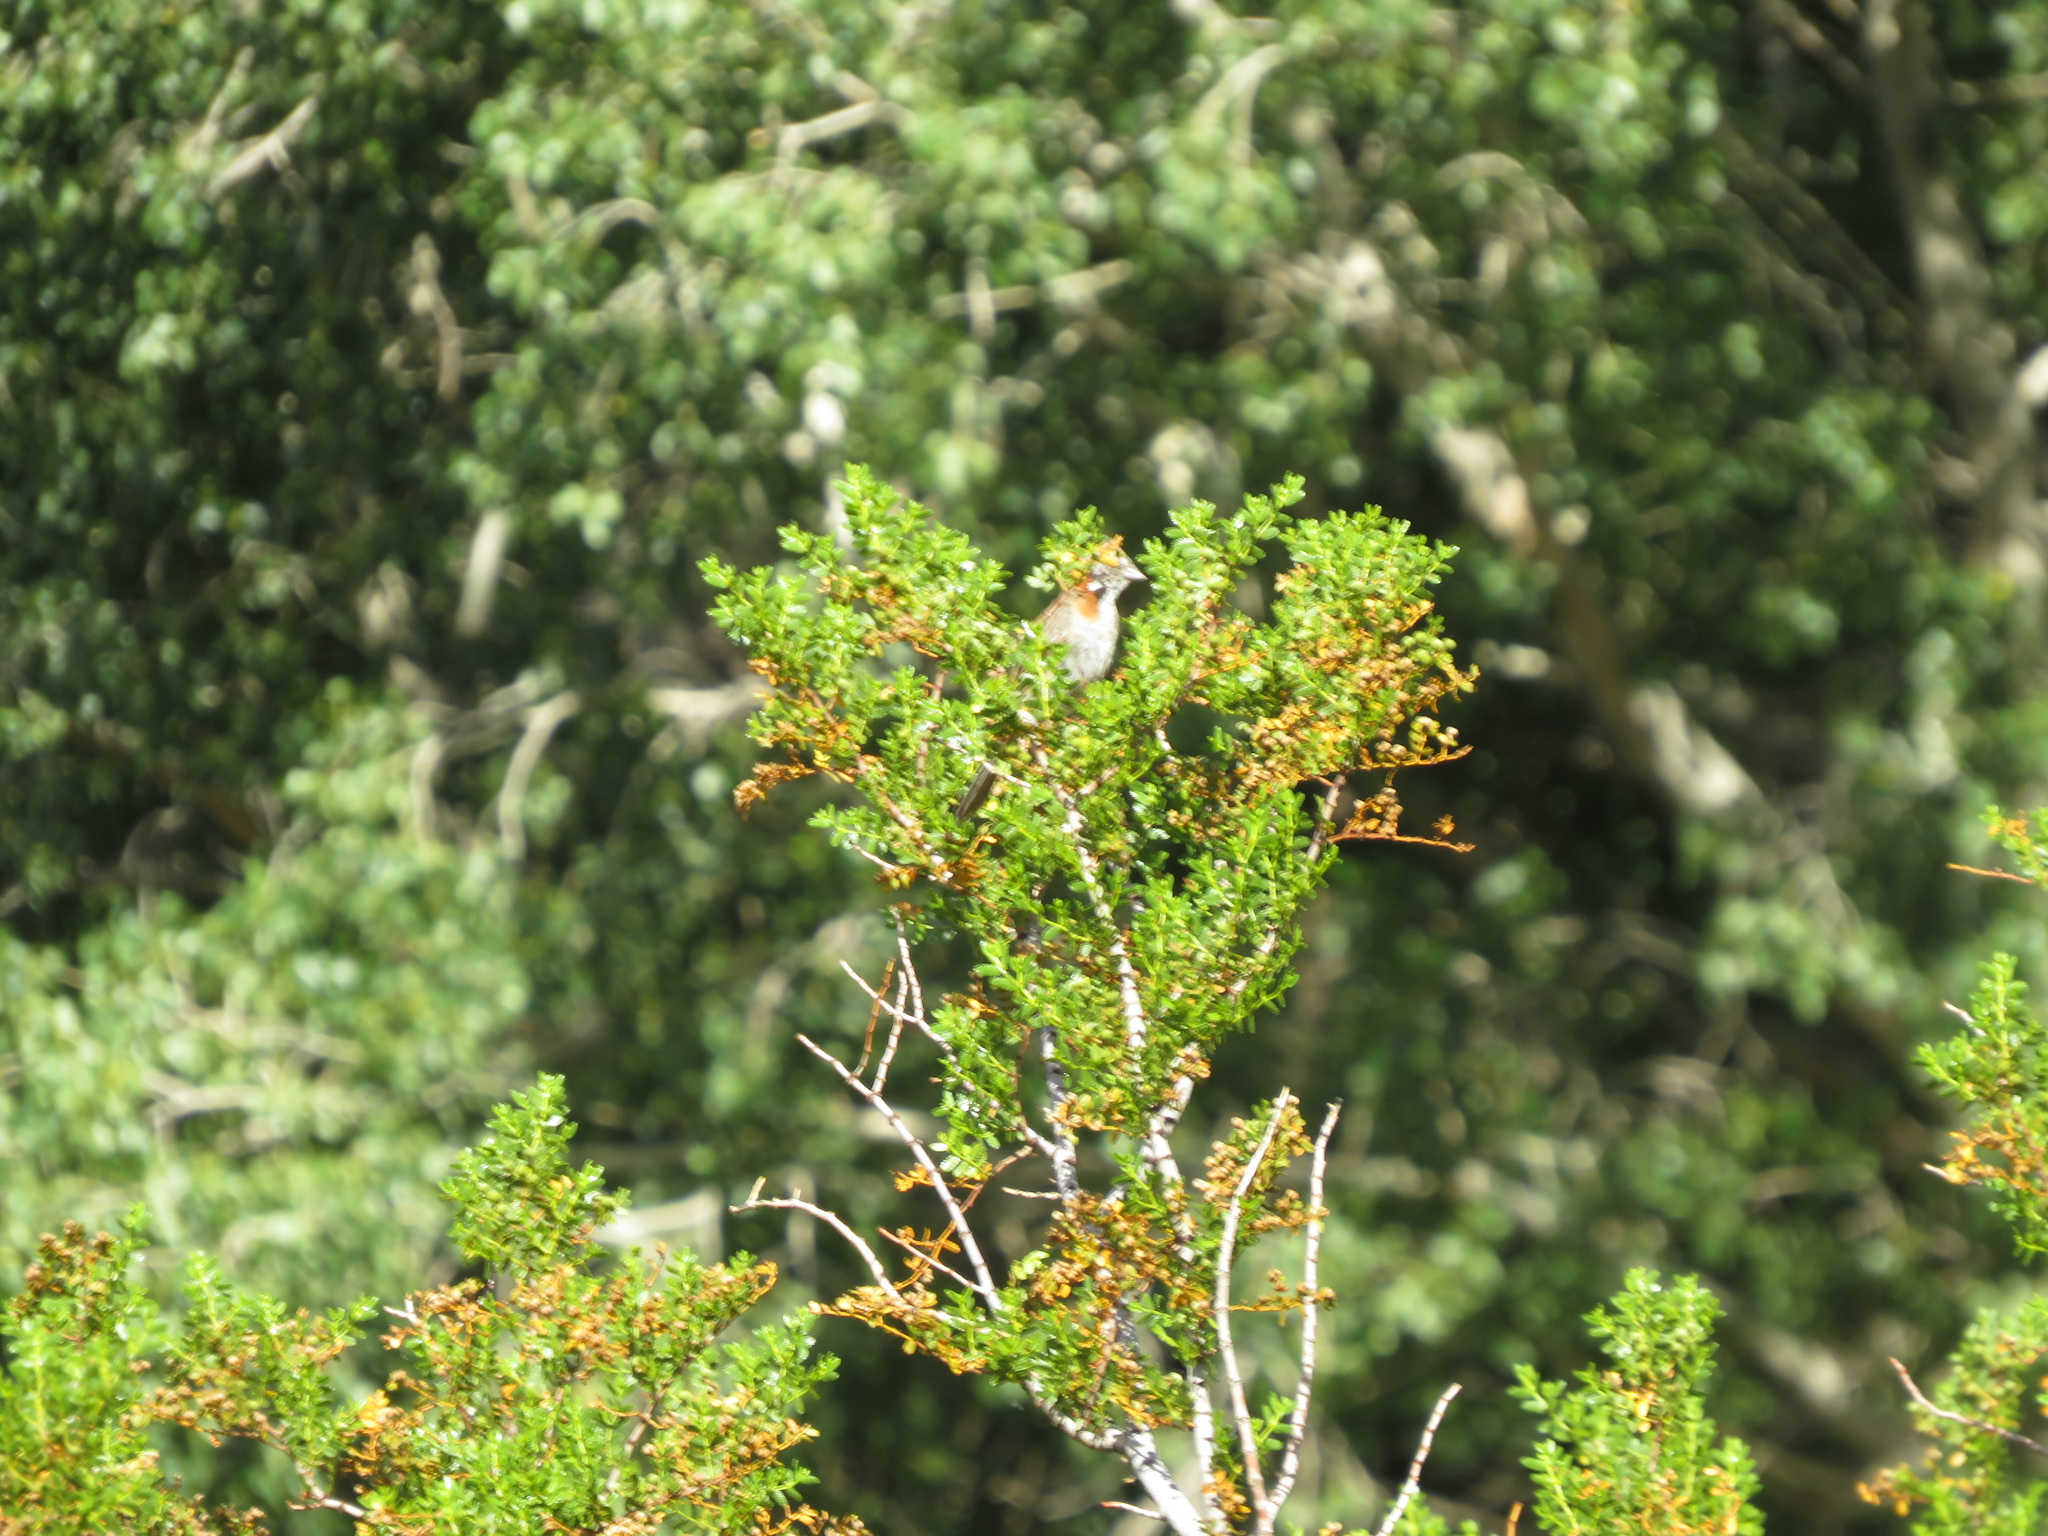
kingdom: Animalia
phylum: Chordata
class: Aves
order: Passeriformes
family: Passerellidae
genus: Zonotrichia
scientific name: Zonotrichia capensis
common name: Rufous-collared sparrow
